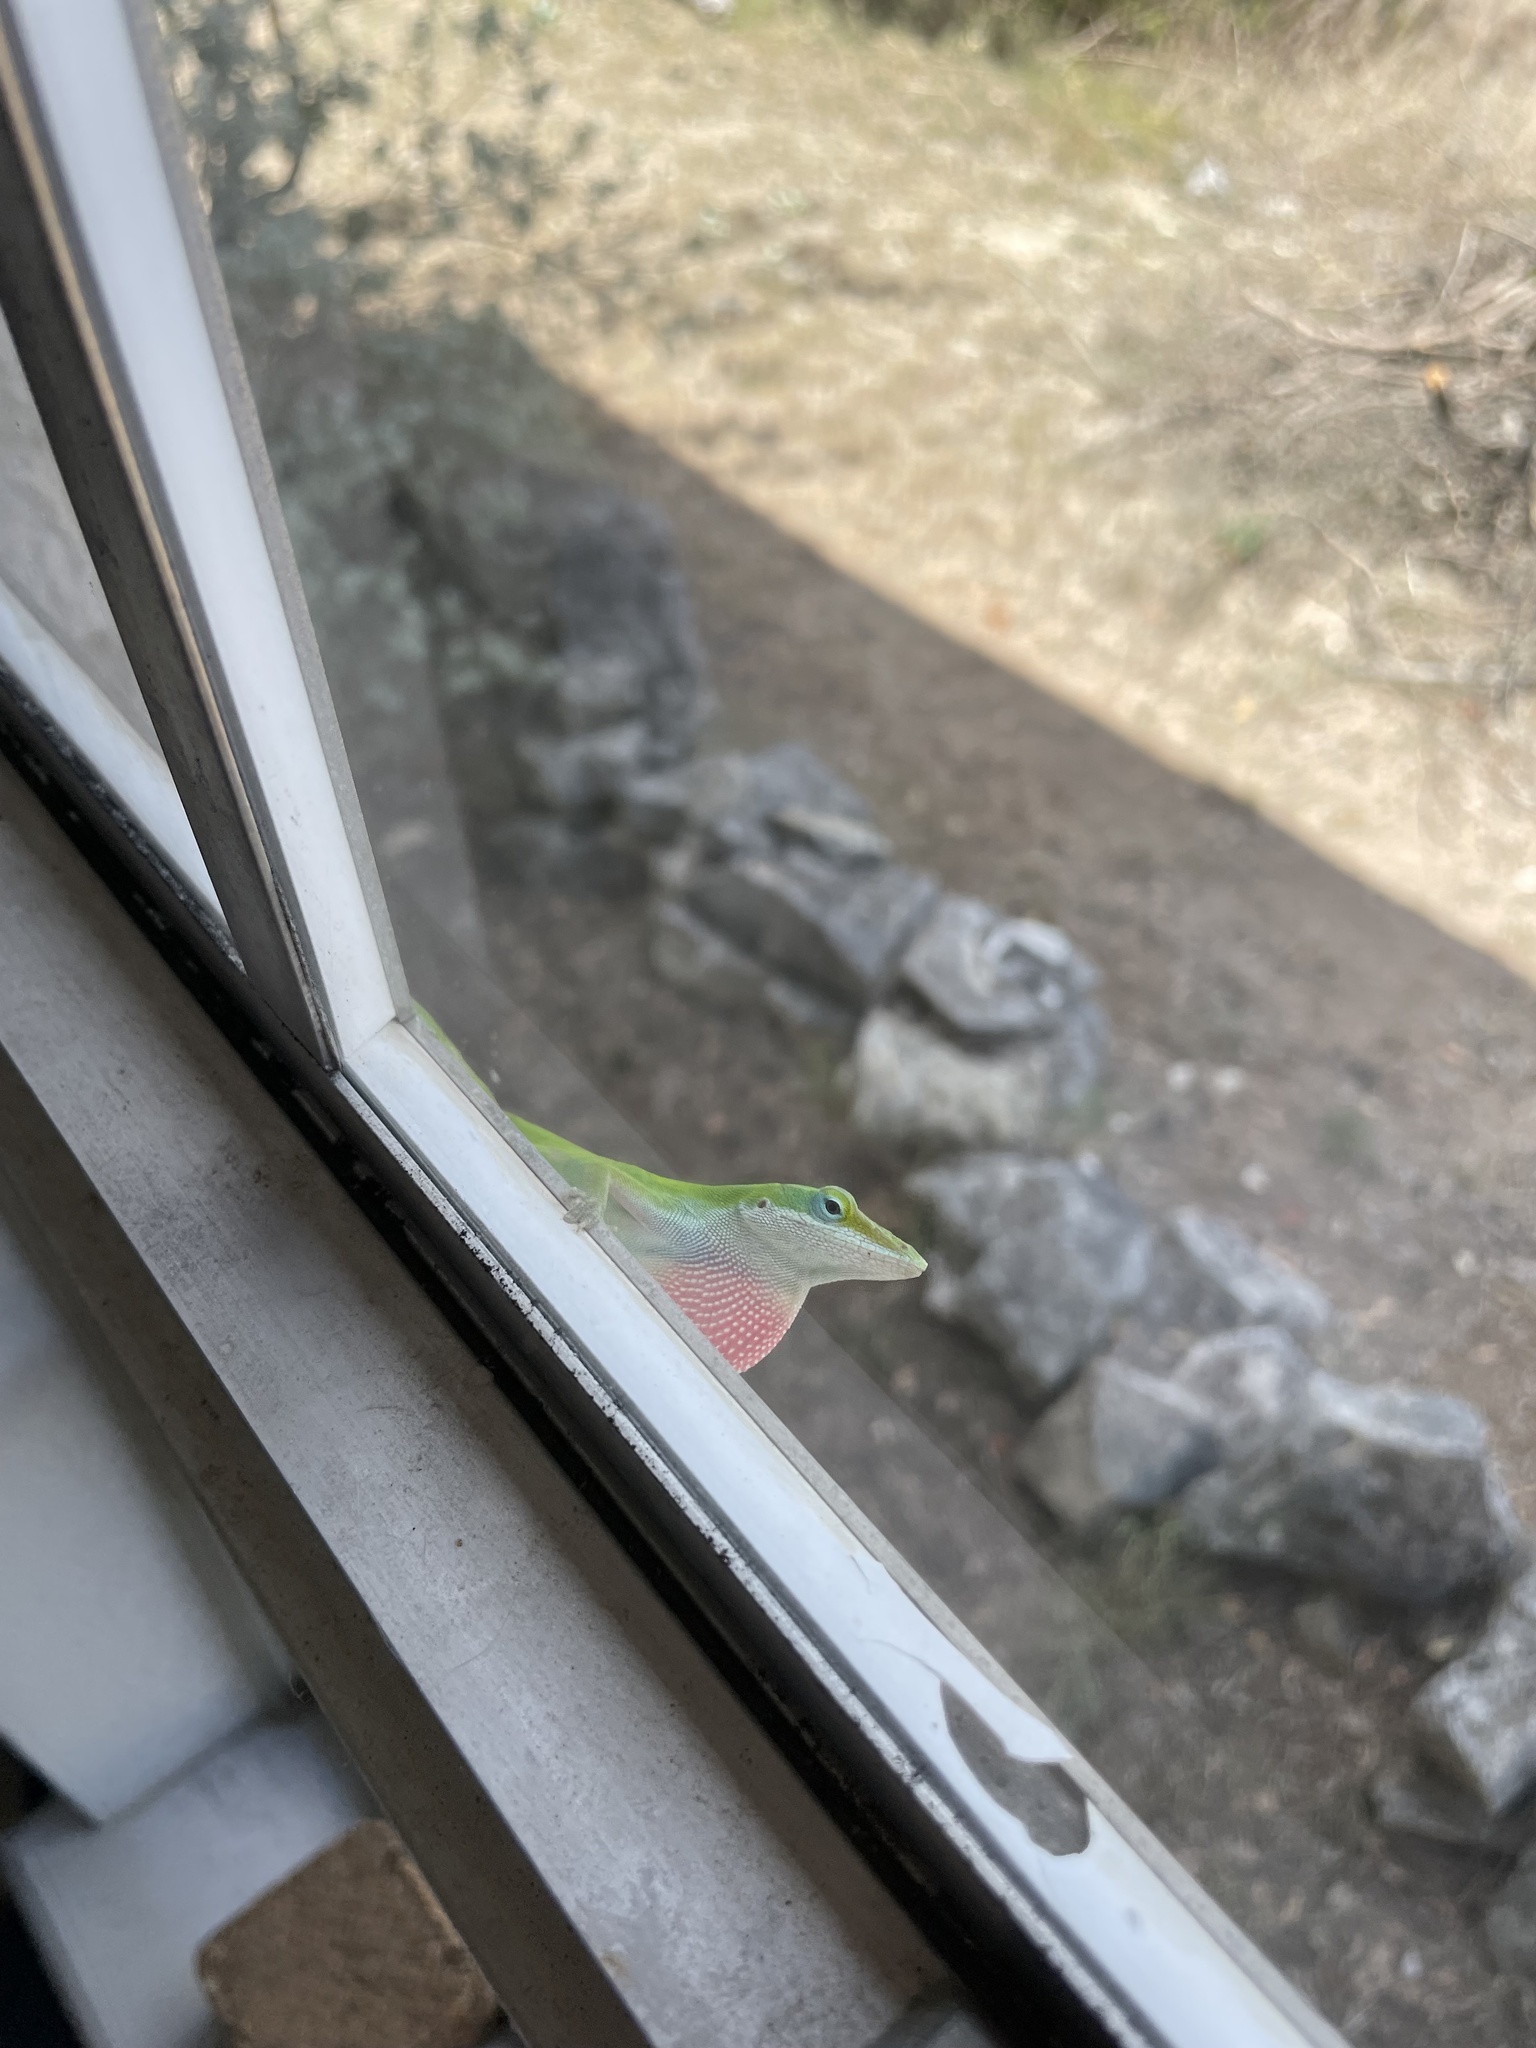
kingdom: Animalia
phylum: Chordata
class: Squamata
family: Dactyloidae
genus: Anolis
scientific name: Anolis carolinensis
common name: Green anole
